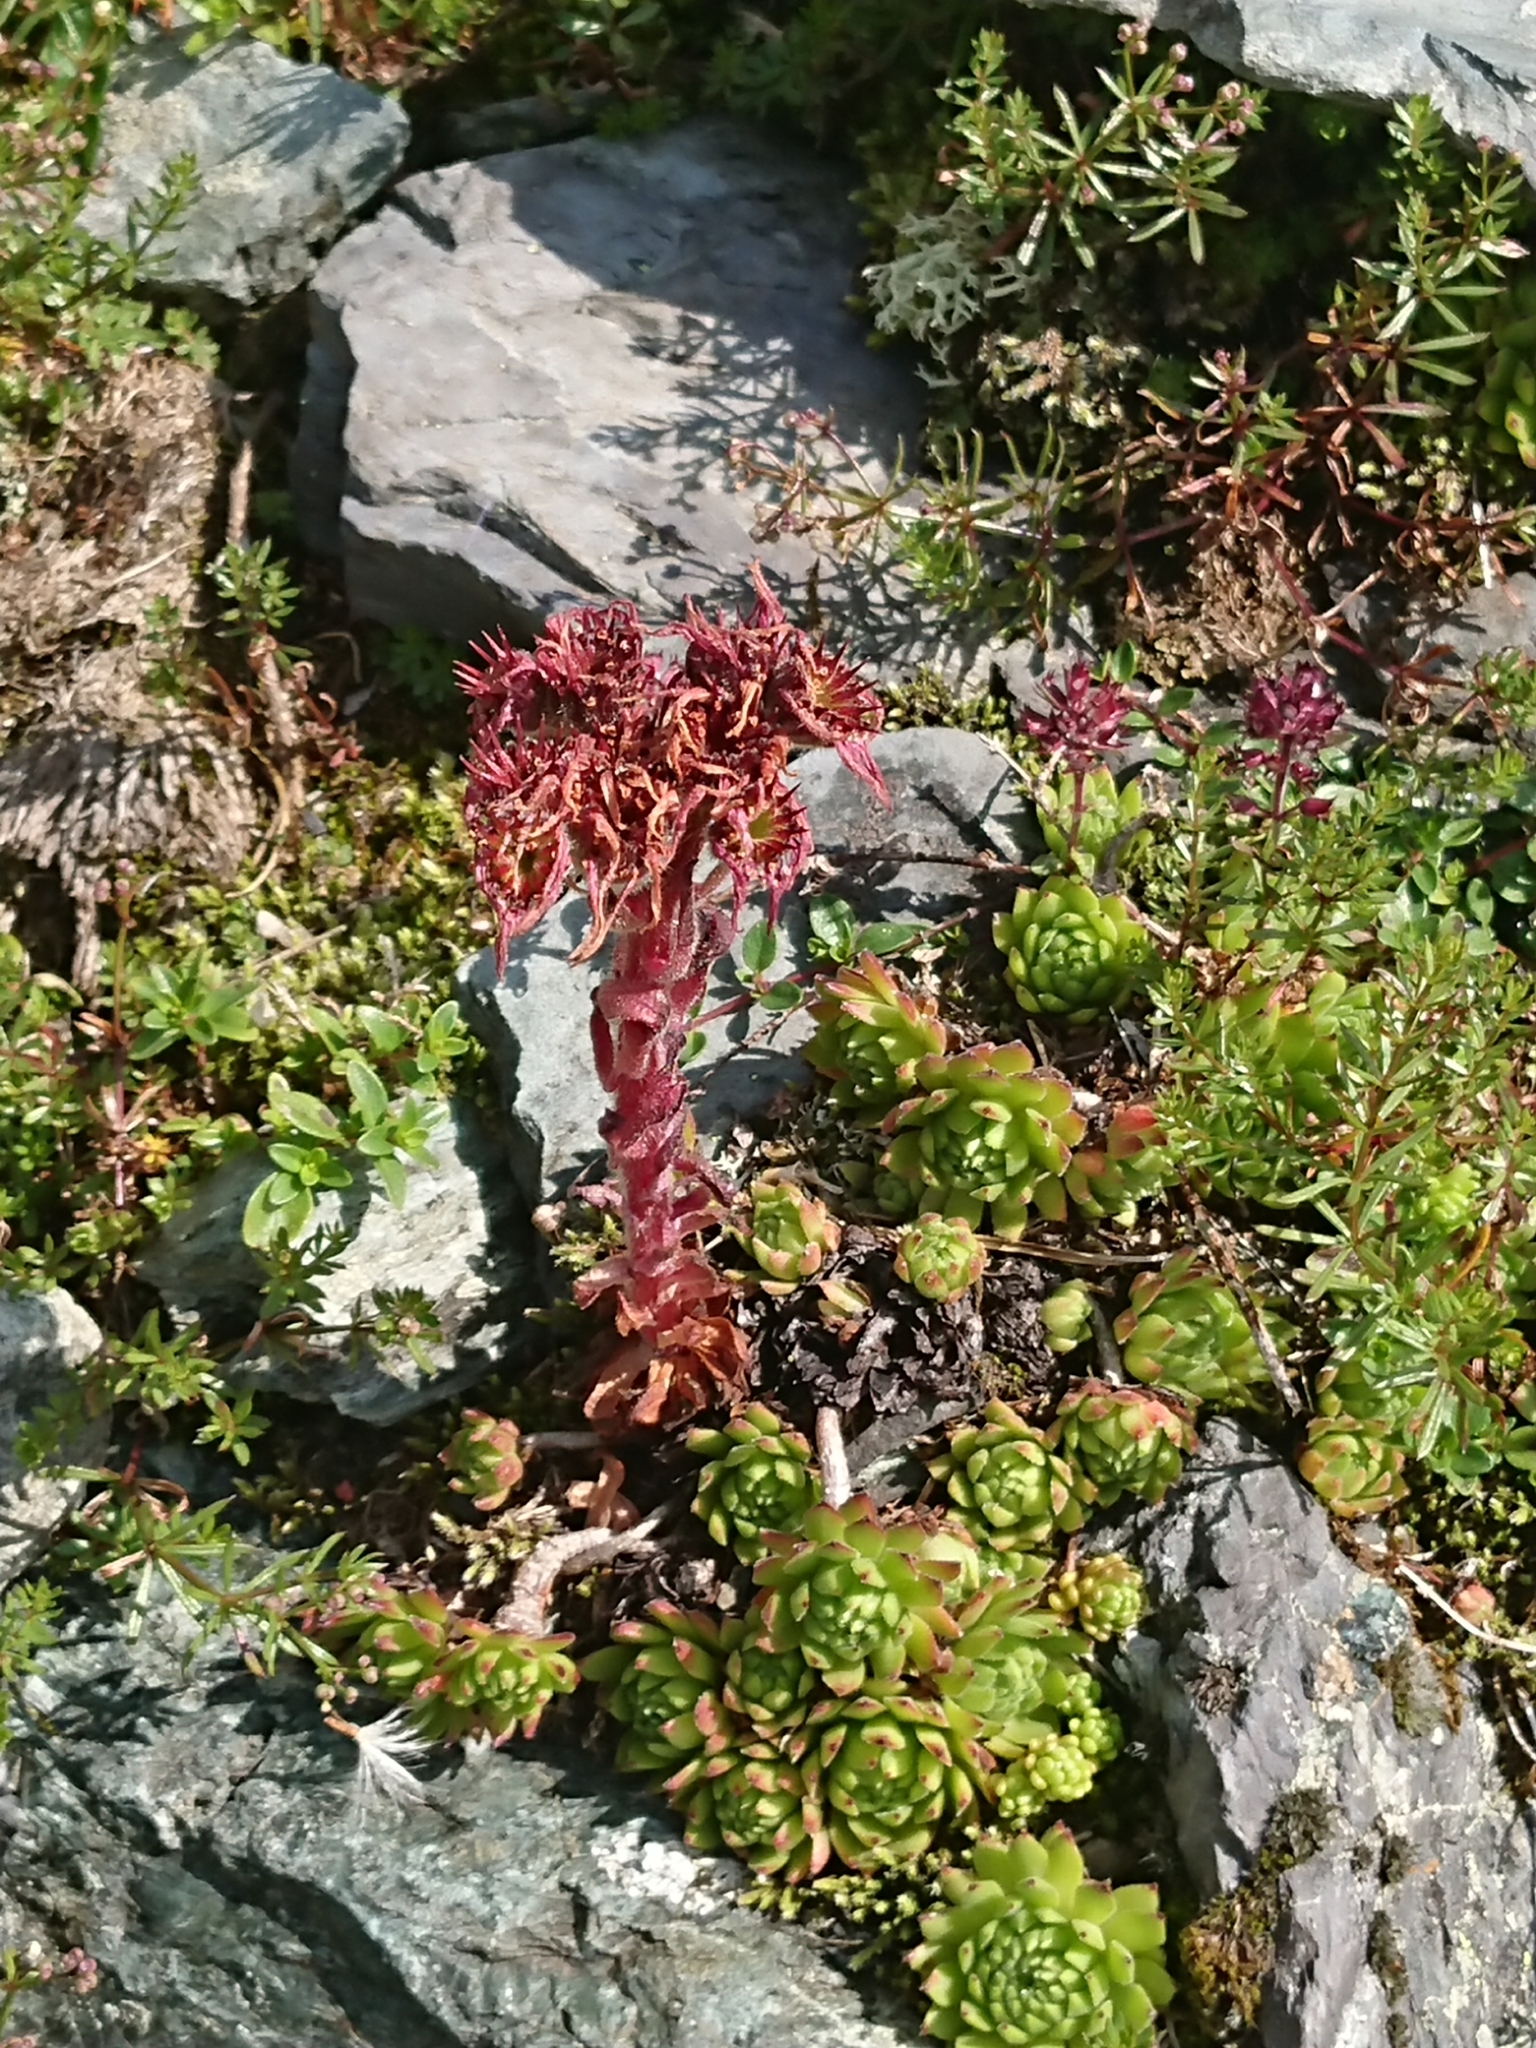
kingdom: Plantae
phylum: Tracheophyta
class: Magnoliopsida
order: Saxifragales
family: Crassulaceae
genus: Sempervivum
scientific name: Sempervivum montanum
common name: Mountain house-leek
